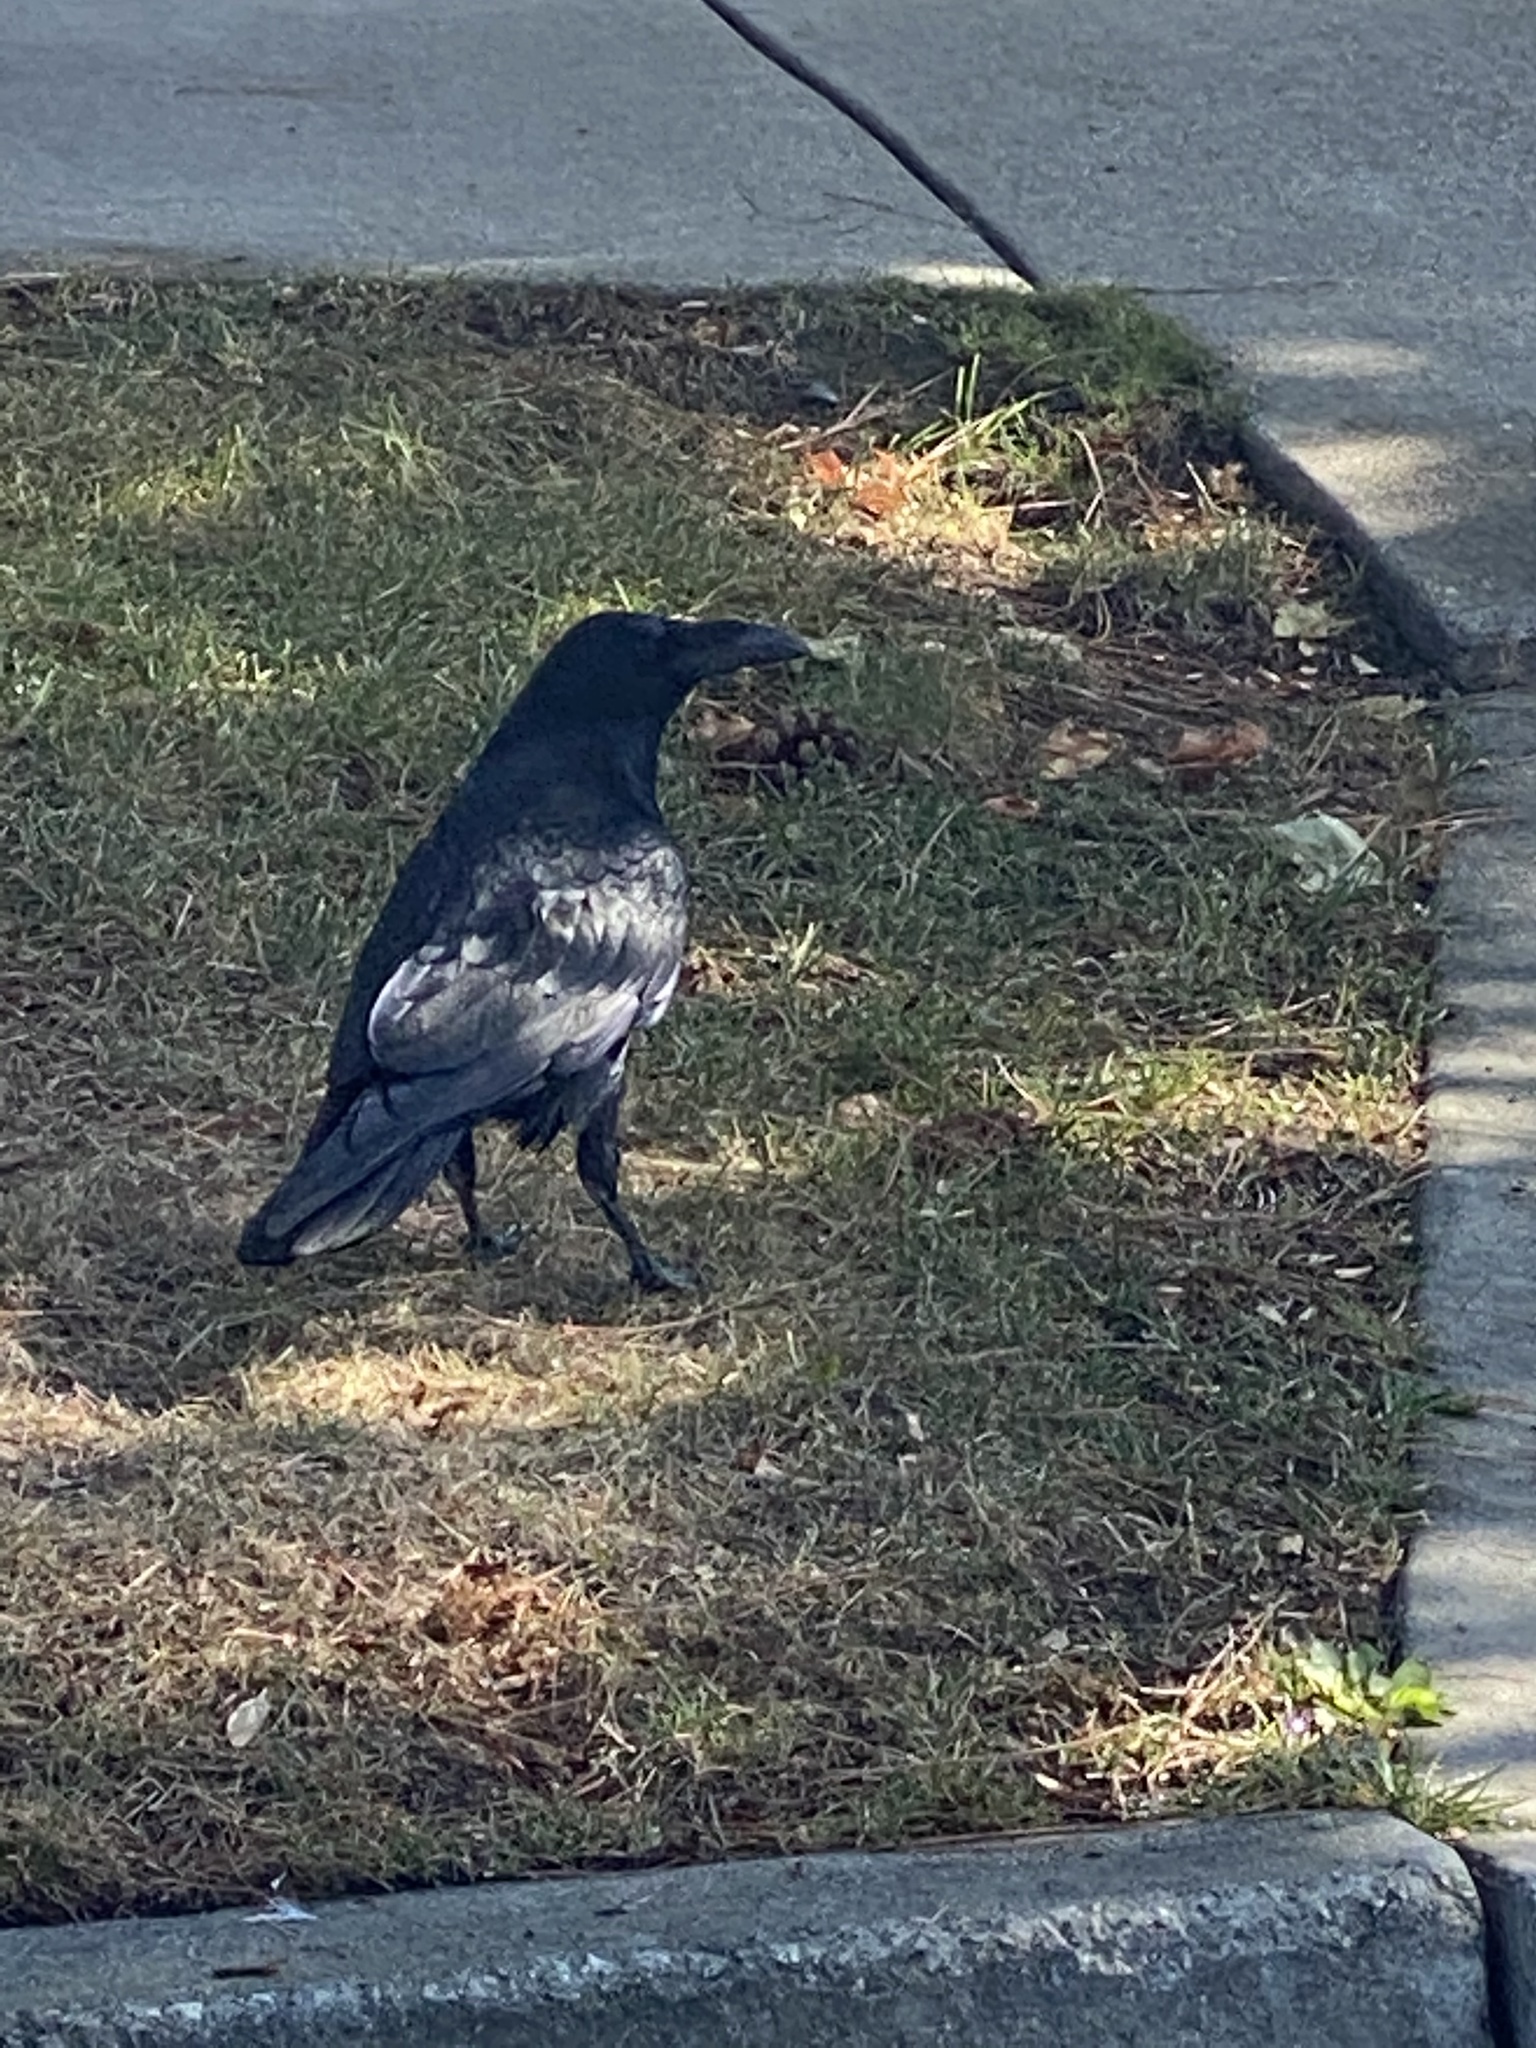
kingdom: Animalia
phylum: Chordata
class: Aves
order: Passeriformes
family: Corvidae
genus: Corvus
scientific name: Corvus corax
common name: Common raven
